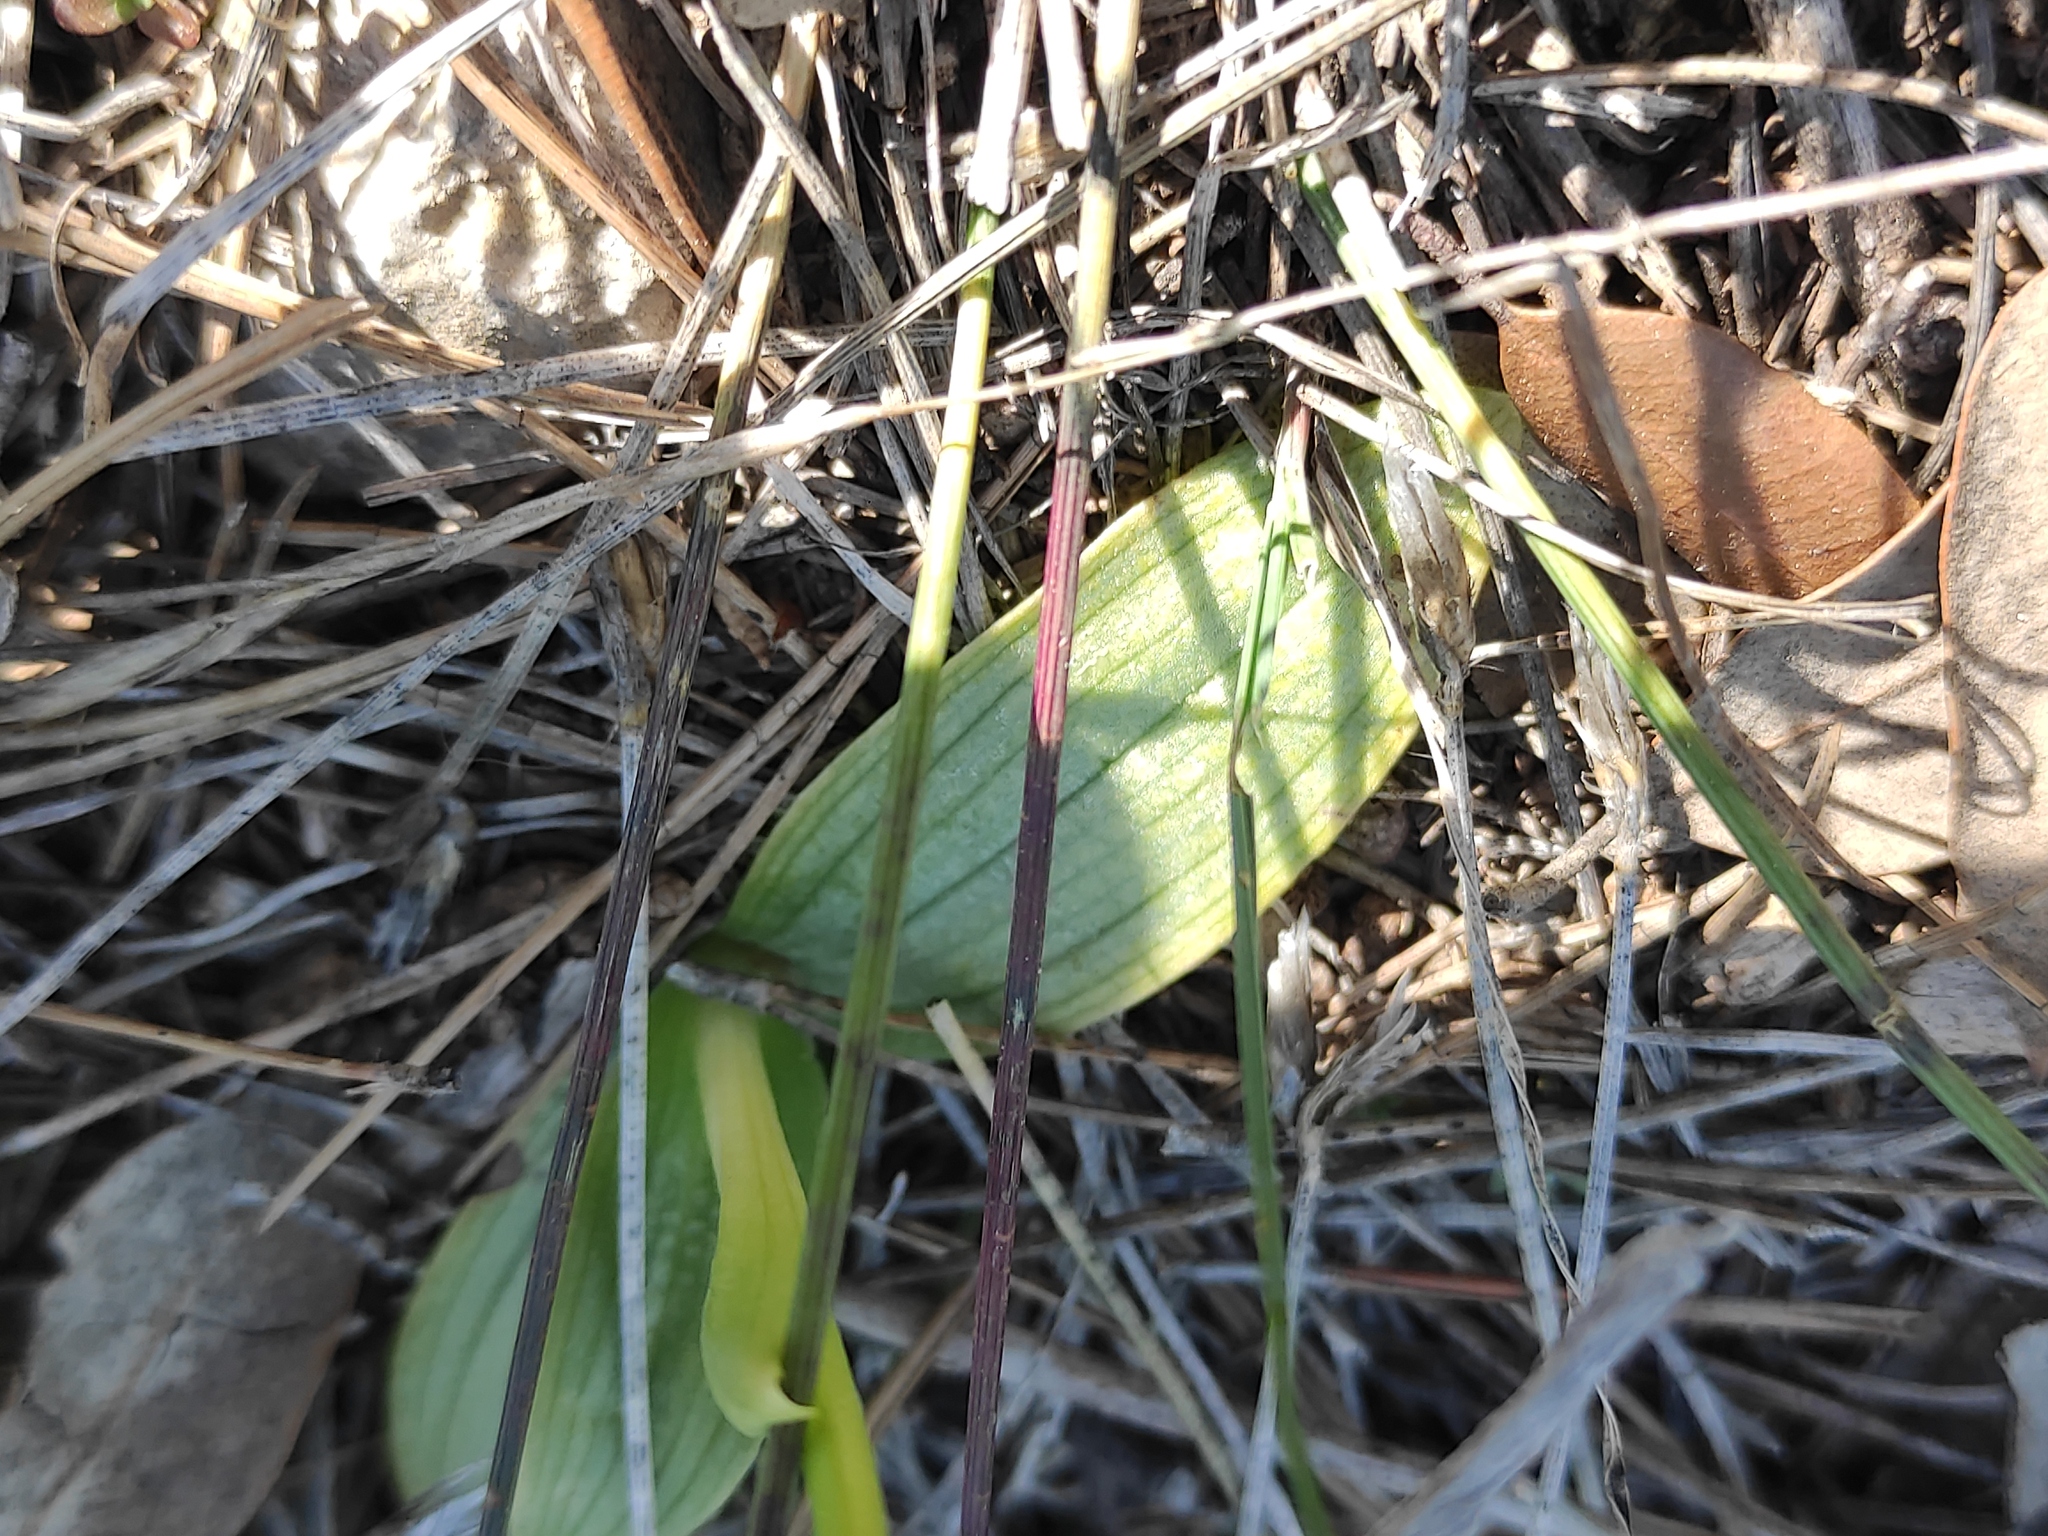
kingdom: Plantae
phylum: Tracheophyta
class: Liliopsida
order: Asparagales
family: Orchidaceae
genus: Ophrys
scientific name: Ophrys fusca
